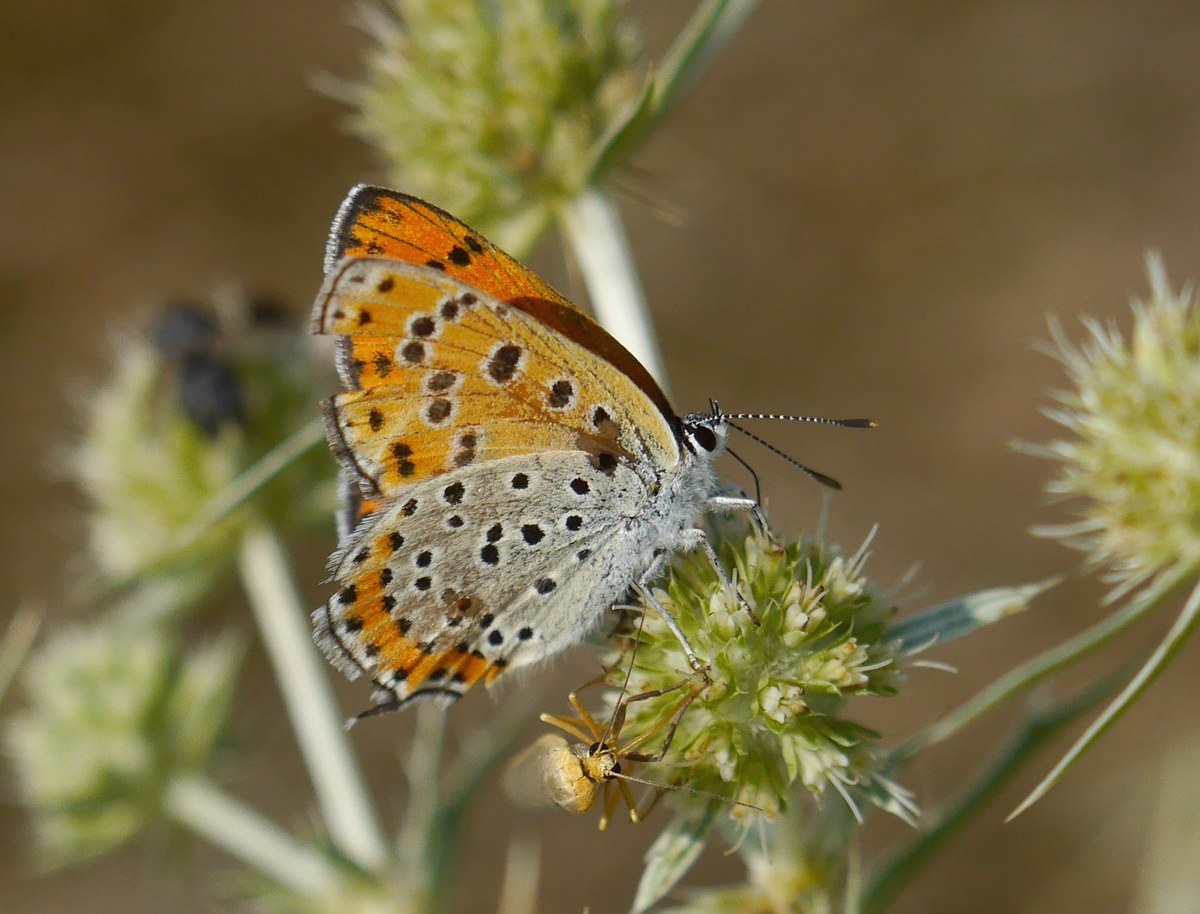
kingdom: Animalia
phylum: Arthropoda
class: Insecta
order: Lepidoptera
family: Lycaenidae
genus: Thersamonia
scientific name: Thersamonia thersamon
